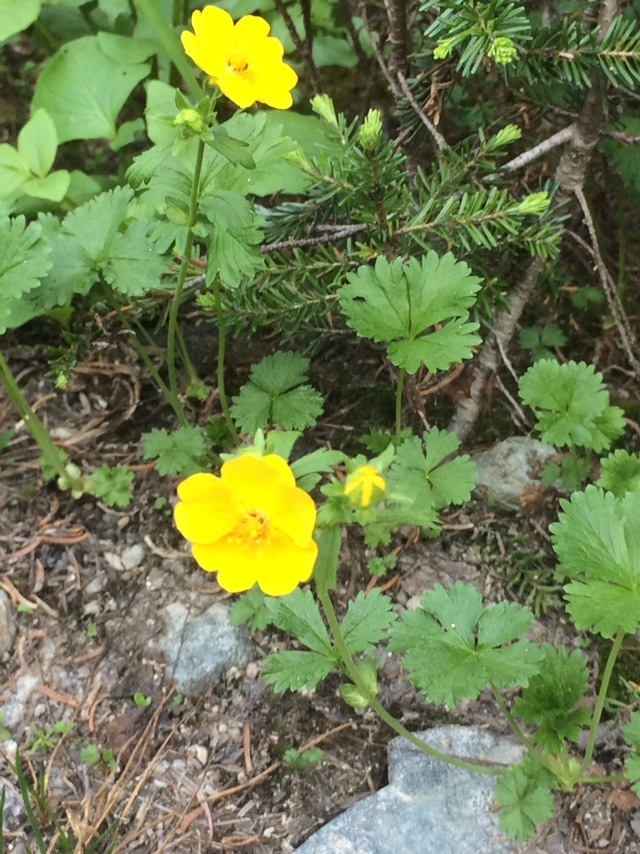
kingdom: Plantae
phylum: Tracheophyta
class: Magnoliopsida
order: Rosales
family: Rosaceae
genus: Potentilla
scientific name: Potentilla flabellifolia
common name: Mount rainier cinquefoil
